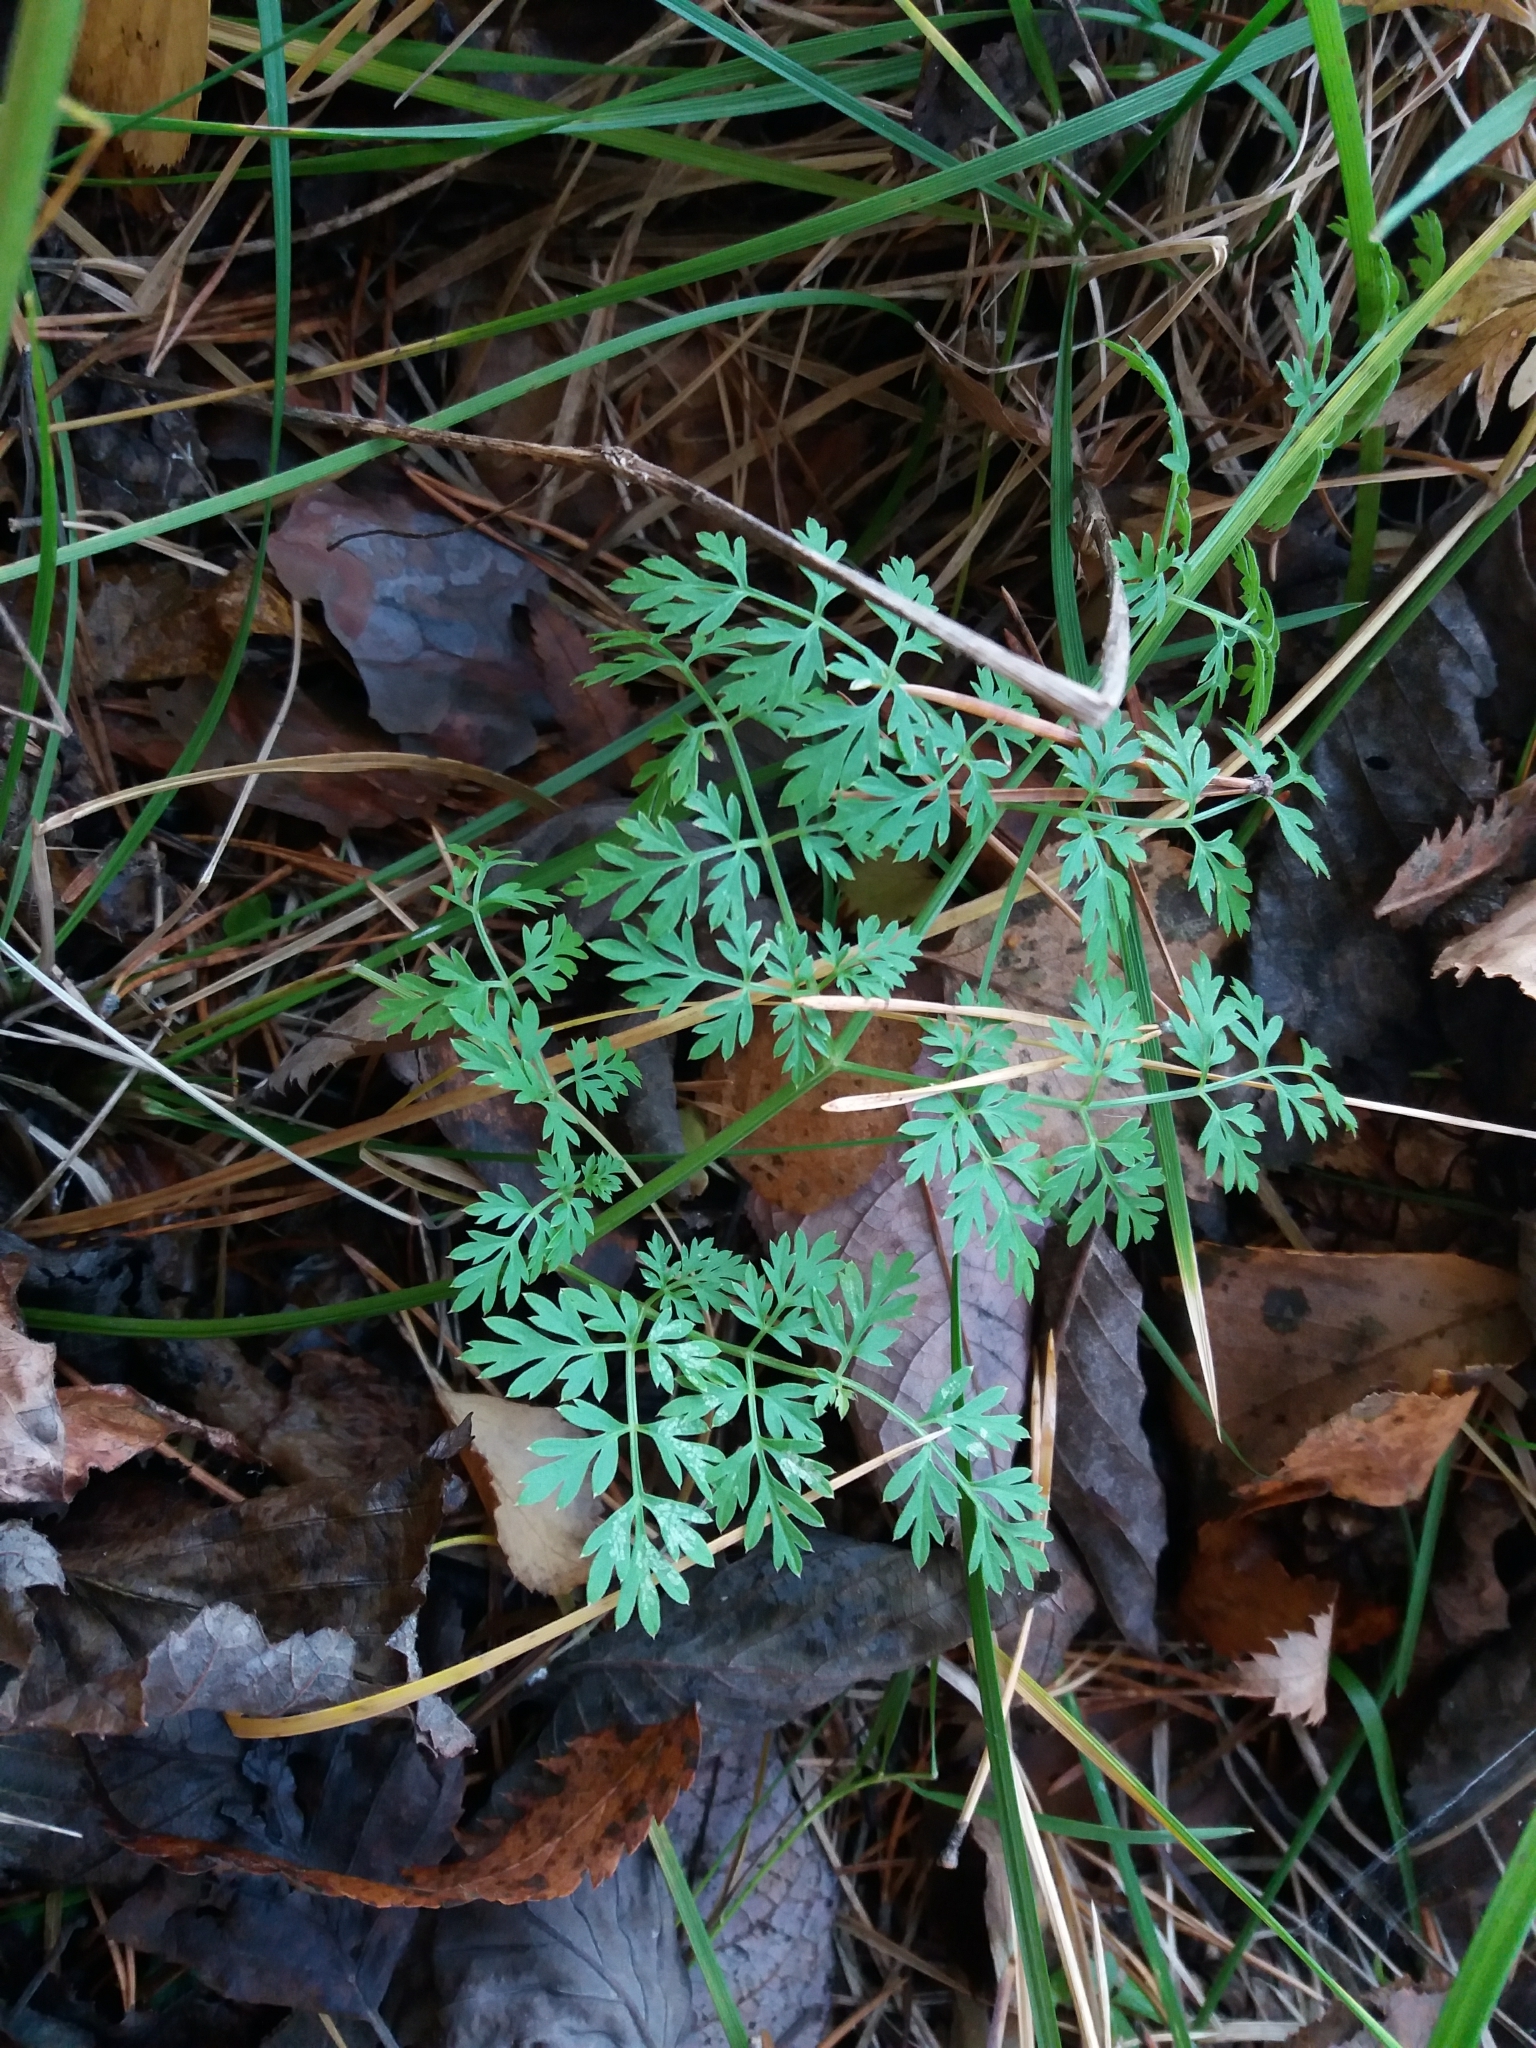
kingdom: Plantae
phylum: Tracheophyta
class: Magnoliopsida
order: Apiales
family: Apiaceae
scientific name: Apiaceae
